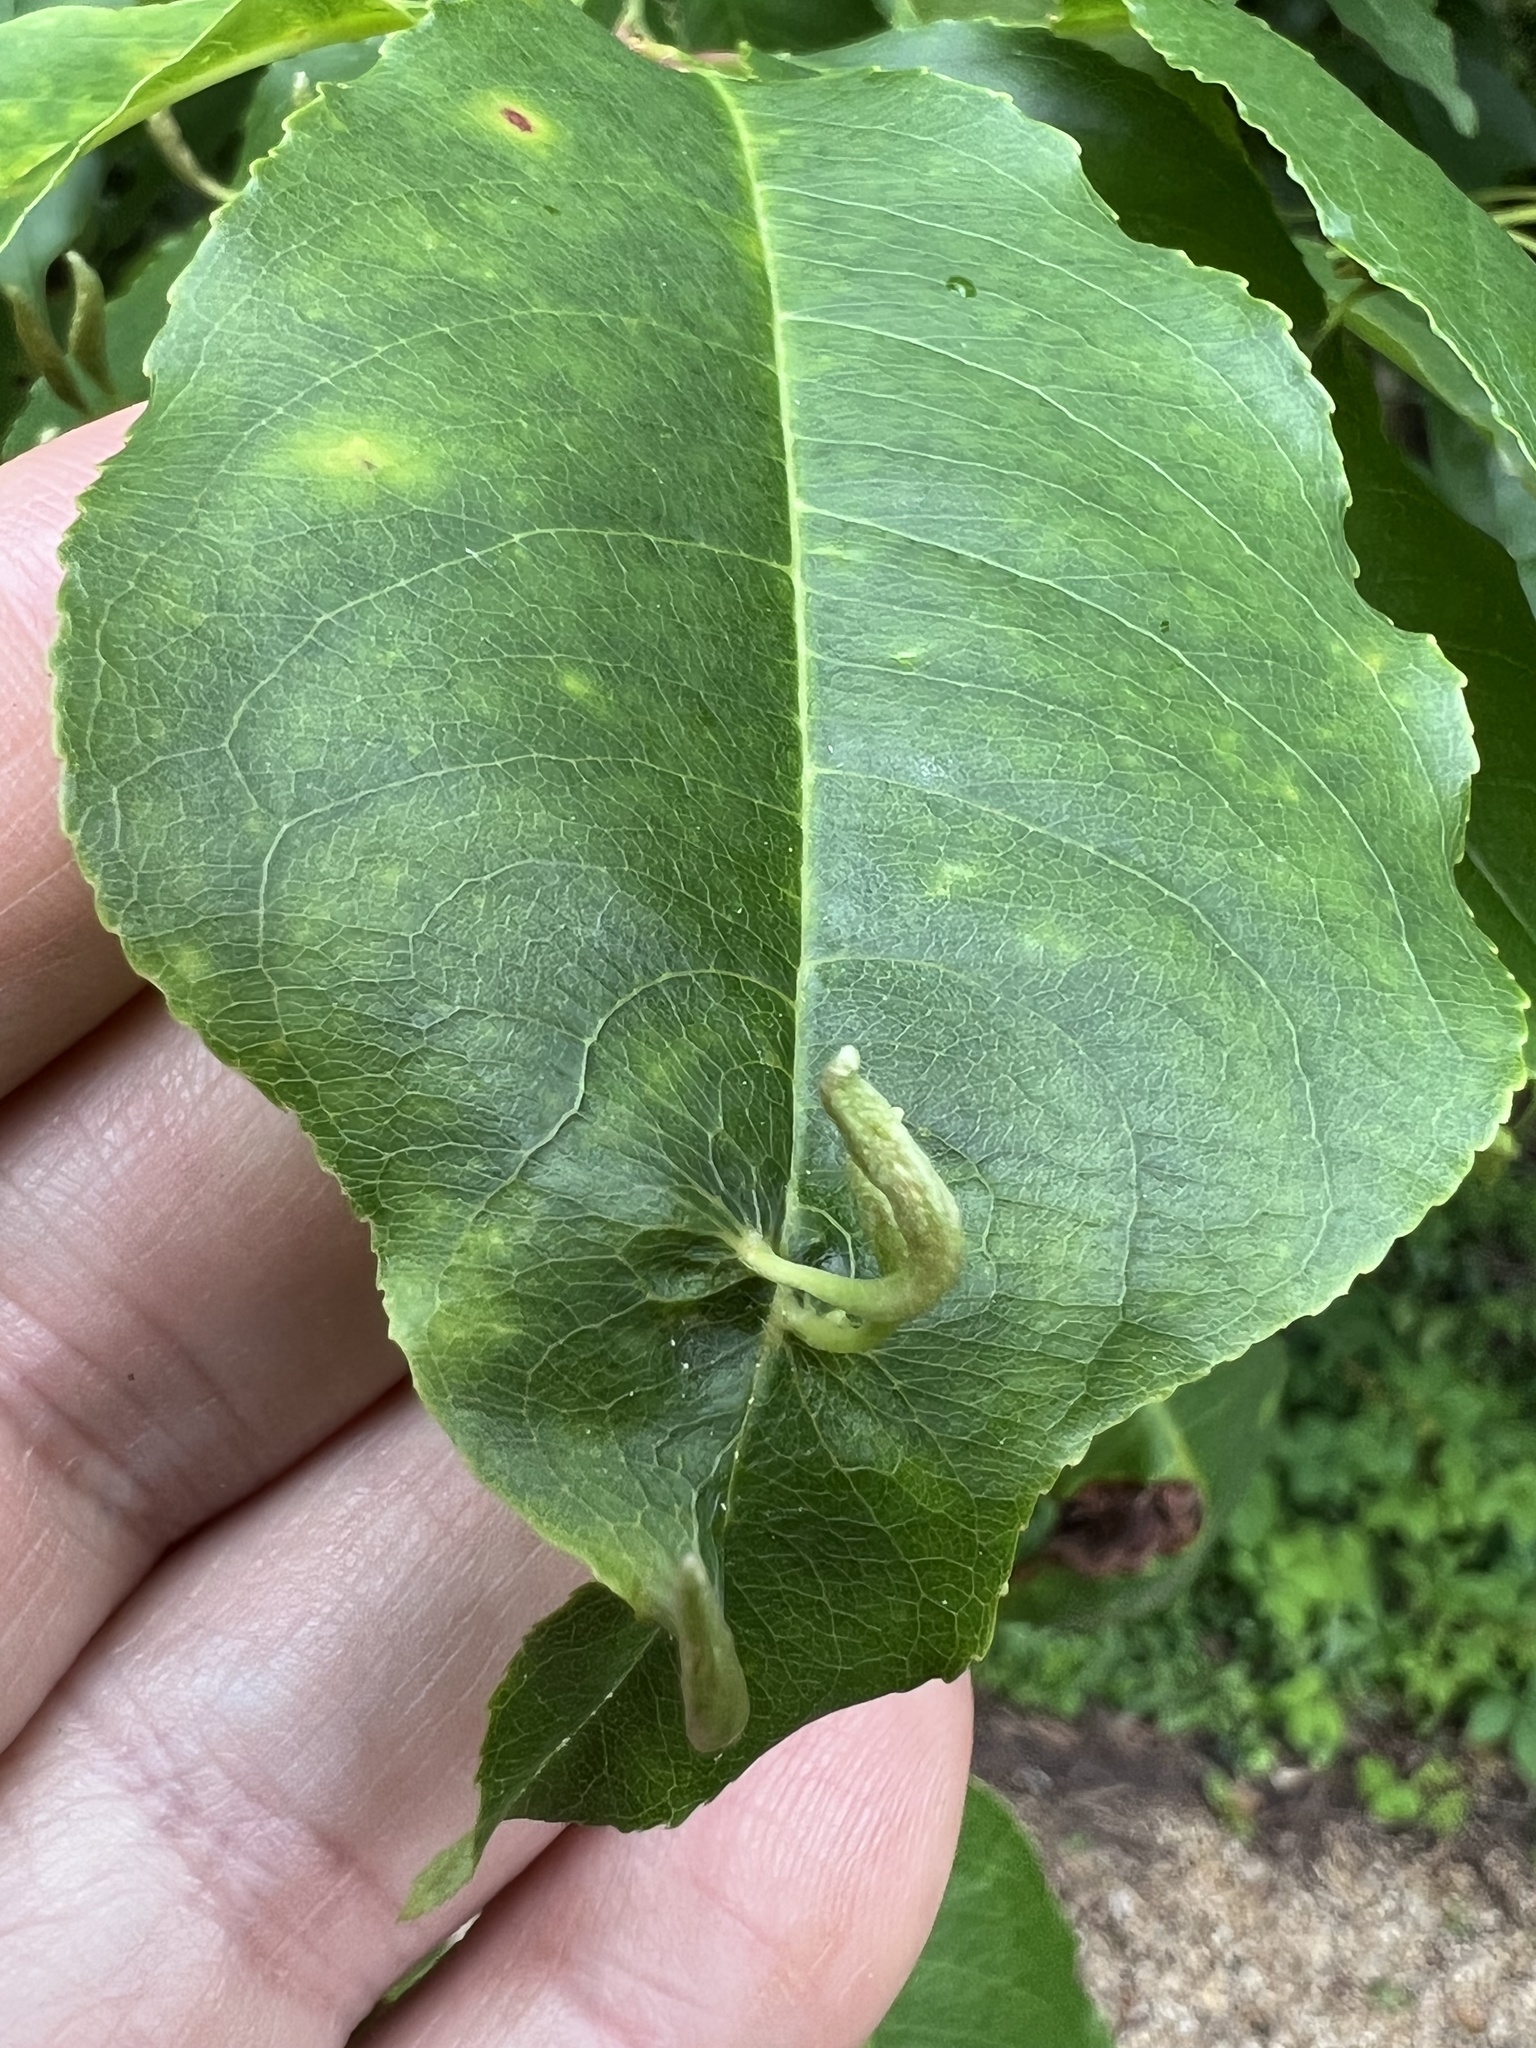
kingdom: Animalia
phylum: Arthropoda
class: Arachnida
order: Trombidiformes
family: Eriophyidae
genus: Eriophyes
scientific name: Eriophyes
